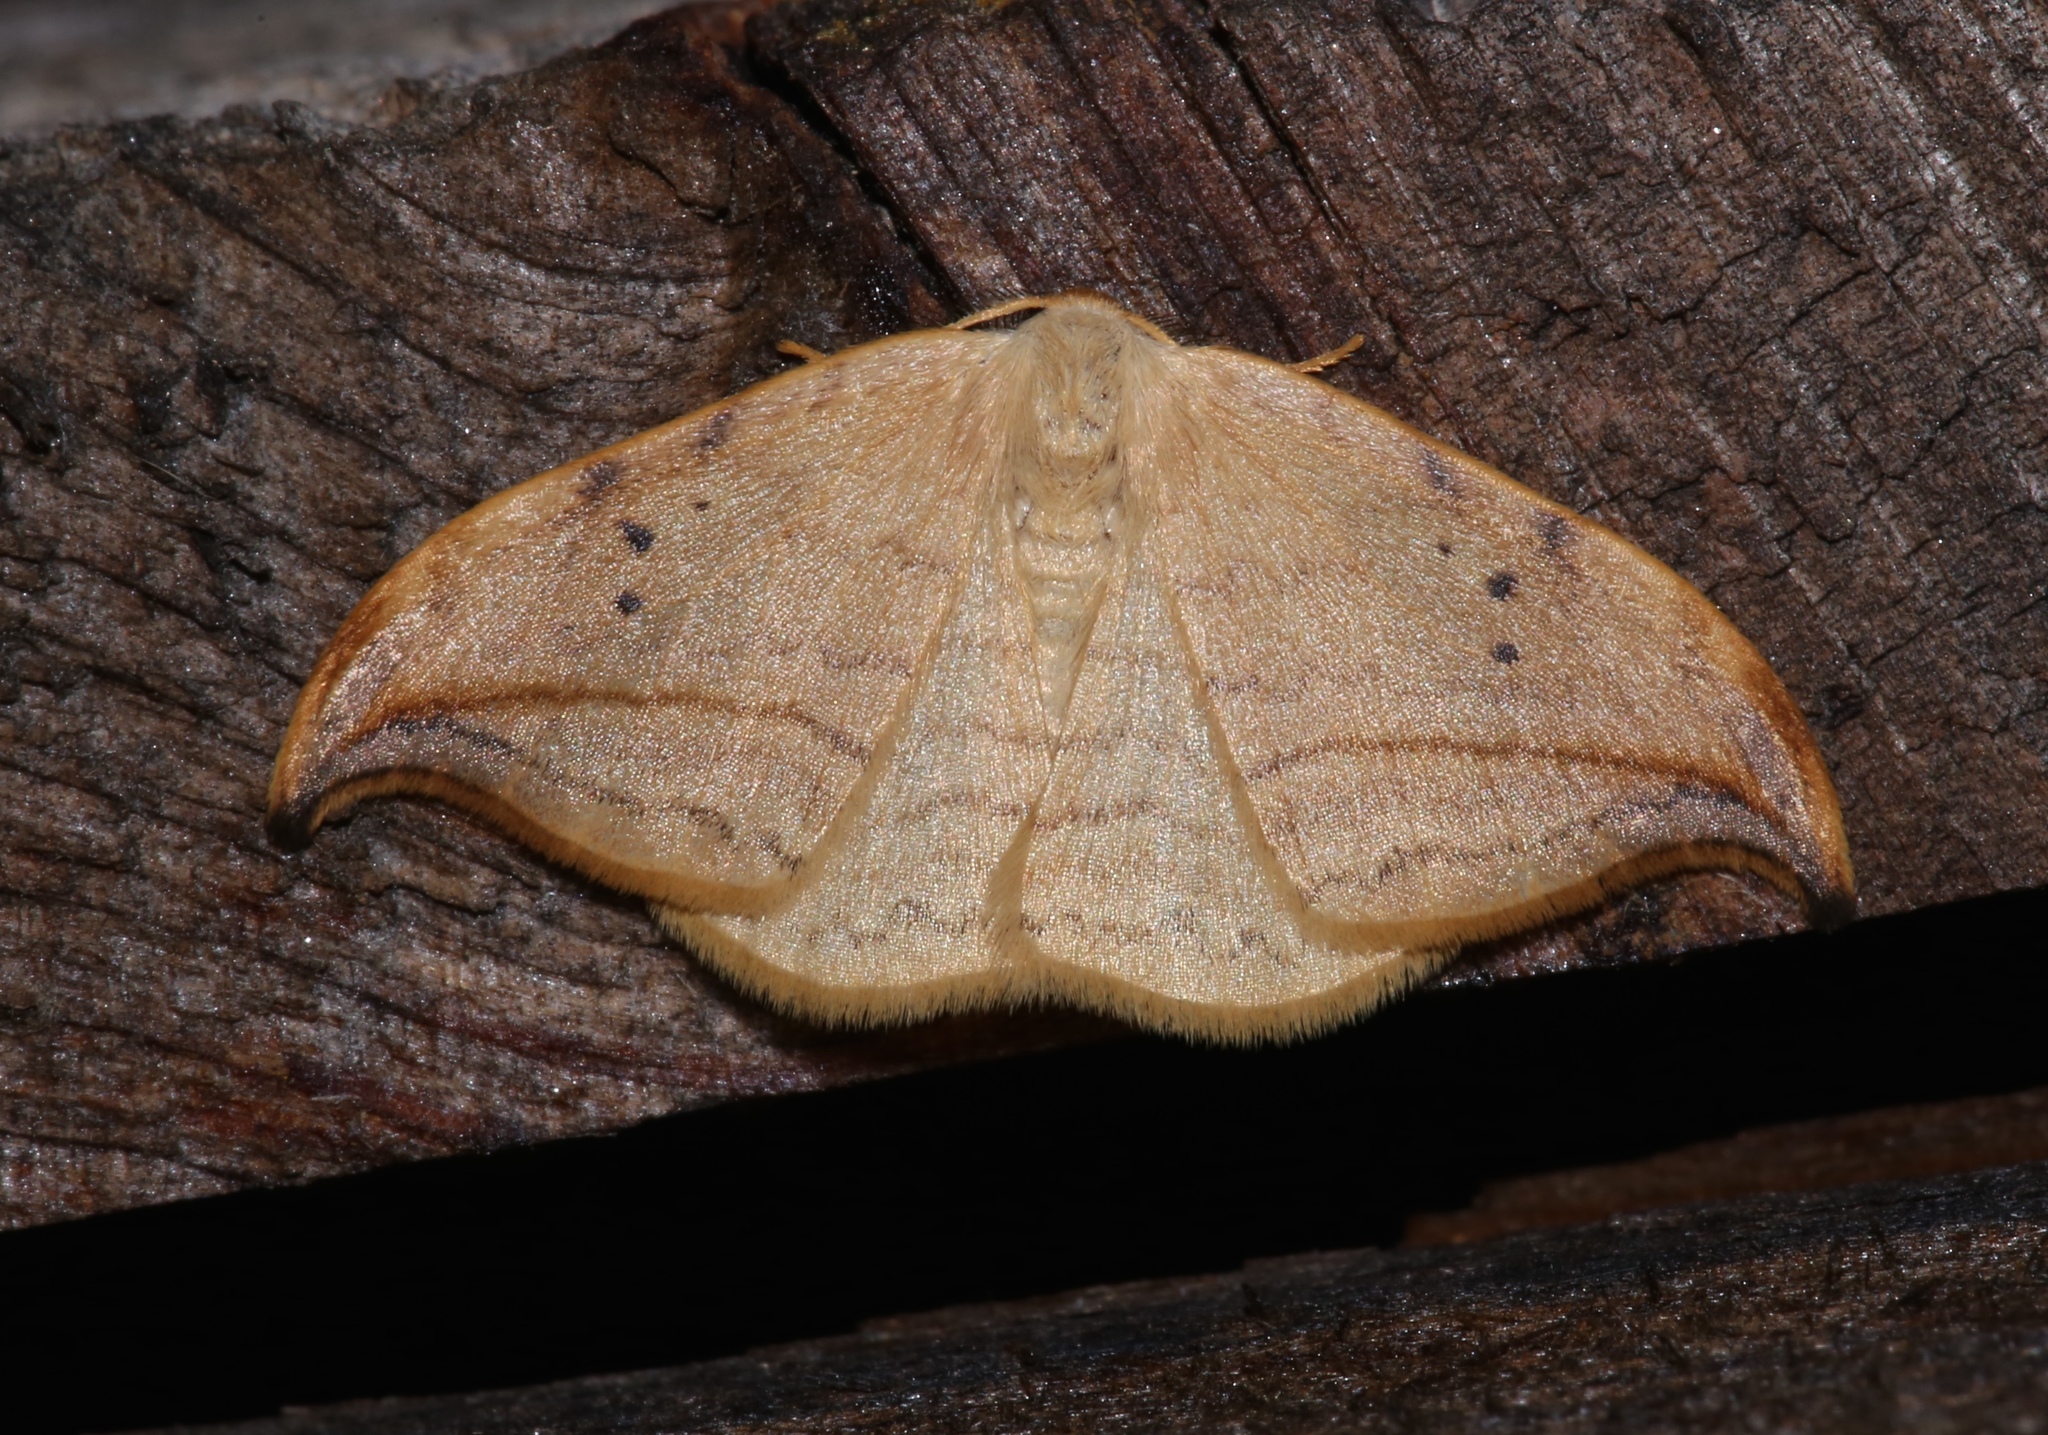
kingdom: Animalia
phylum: Arthropoda
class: Insecta
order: Lepidoptera
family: Drepanidae
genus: Drepana
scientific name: Drepana arcuata
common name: Arched hooktip moth
